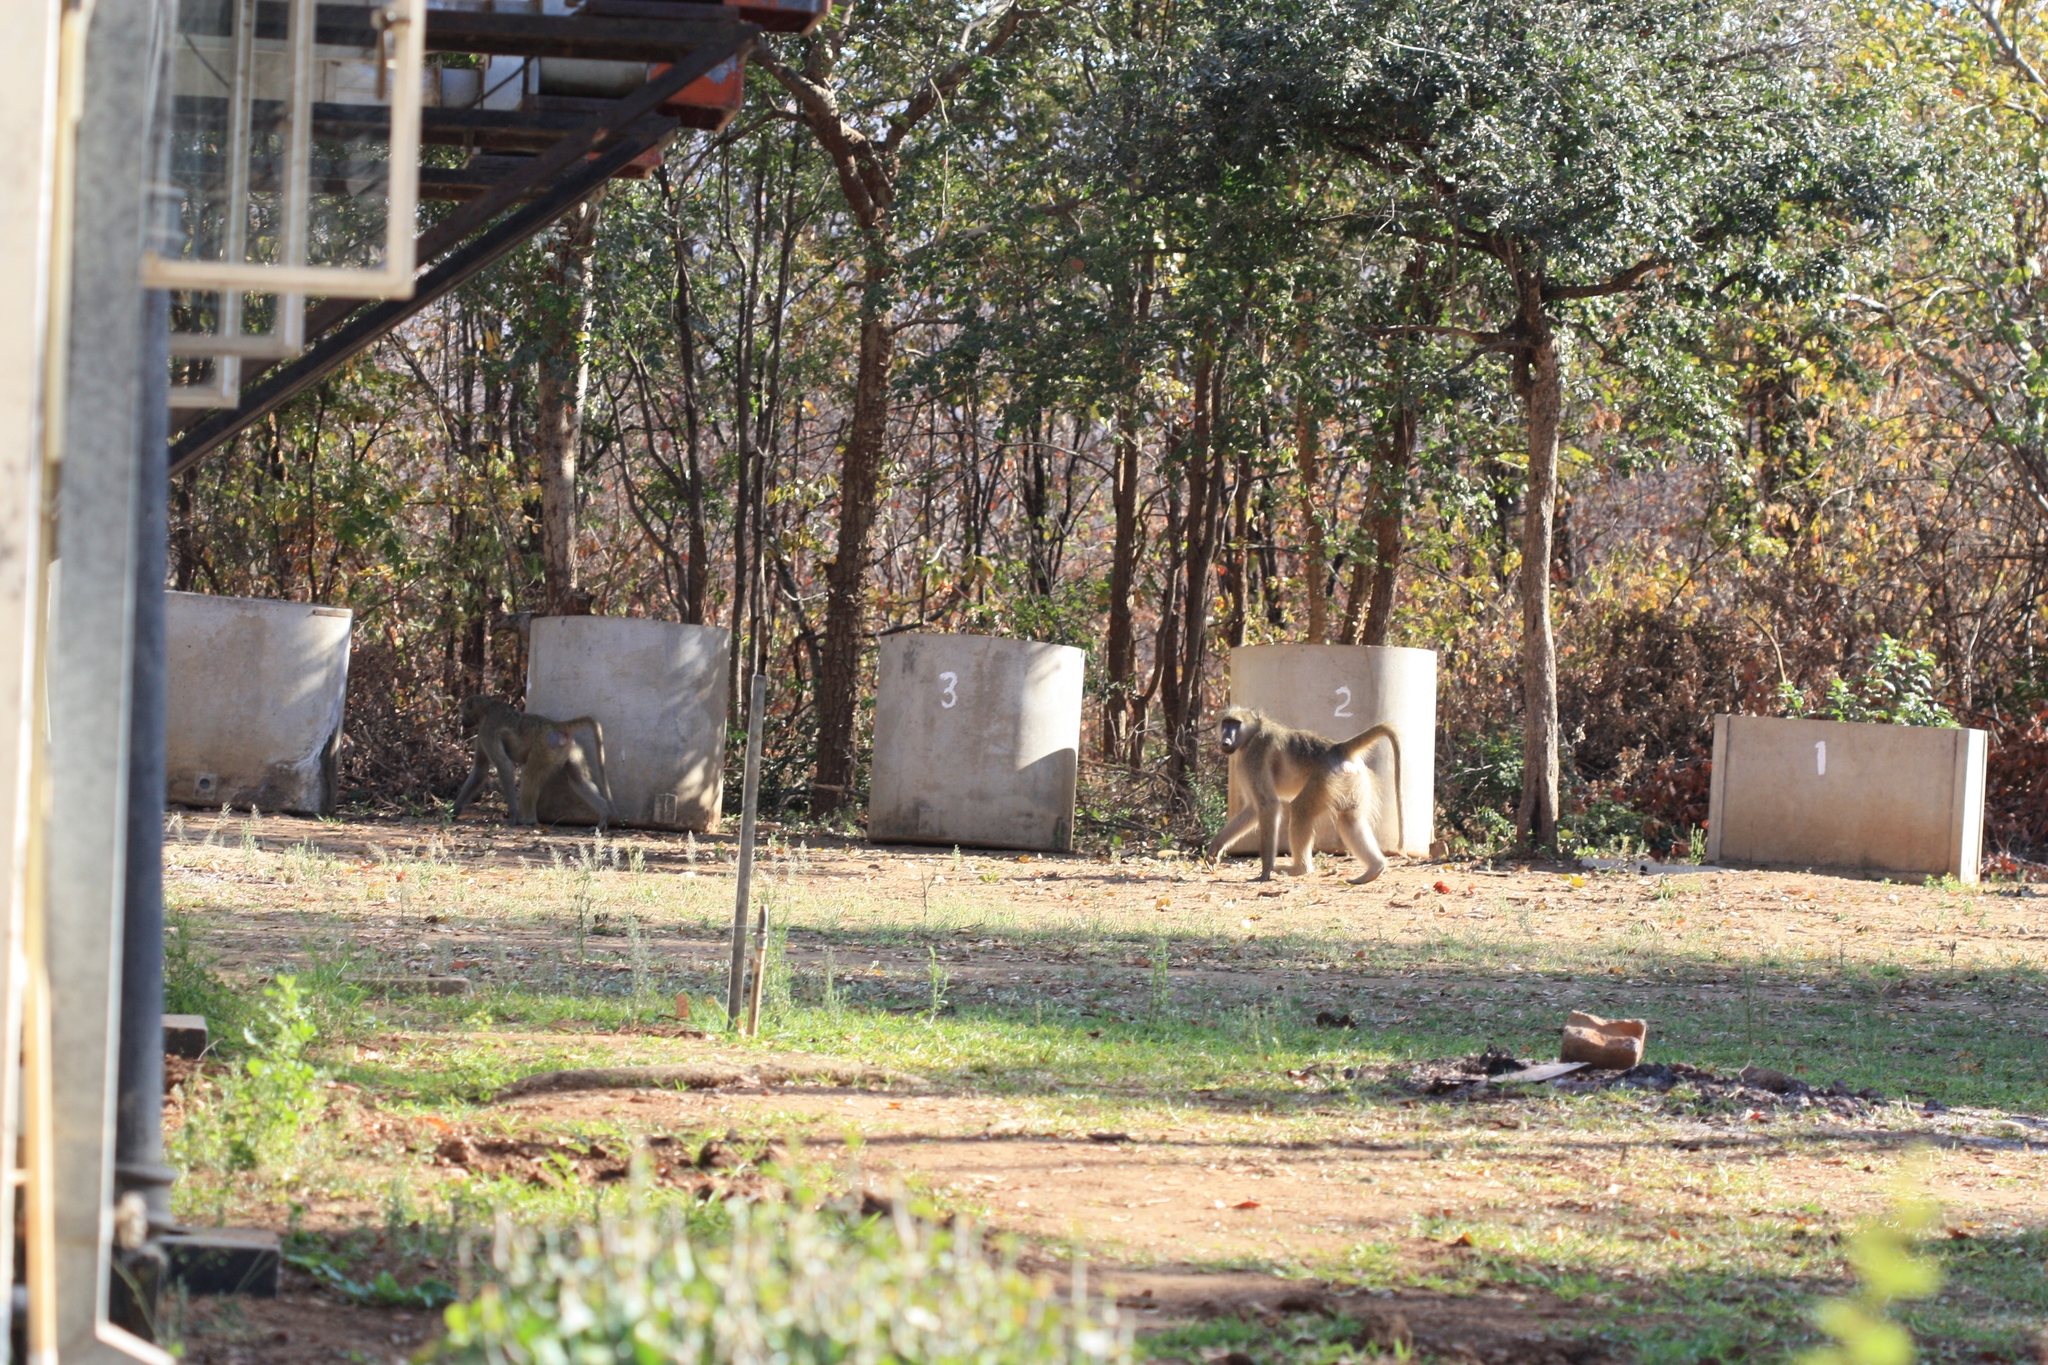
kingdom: Animalia
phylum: Chordata
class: Mammalia
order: Primates
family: Cercopithecidae
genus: Papio
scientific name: Papio ursinus
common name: Chacma baboon
